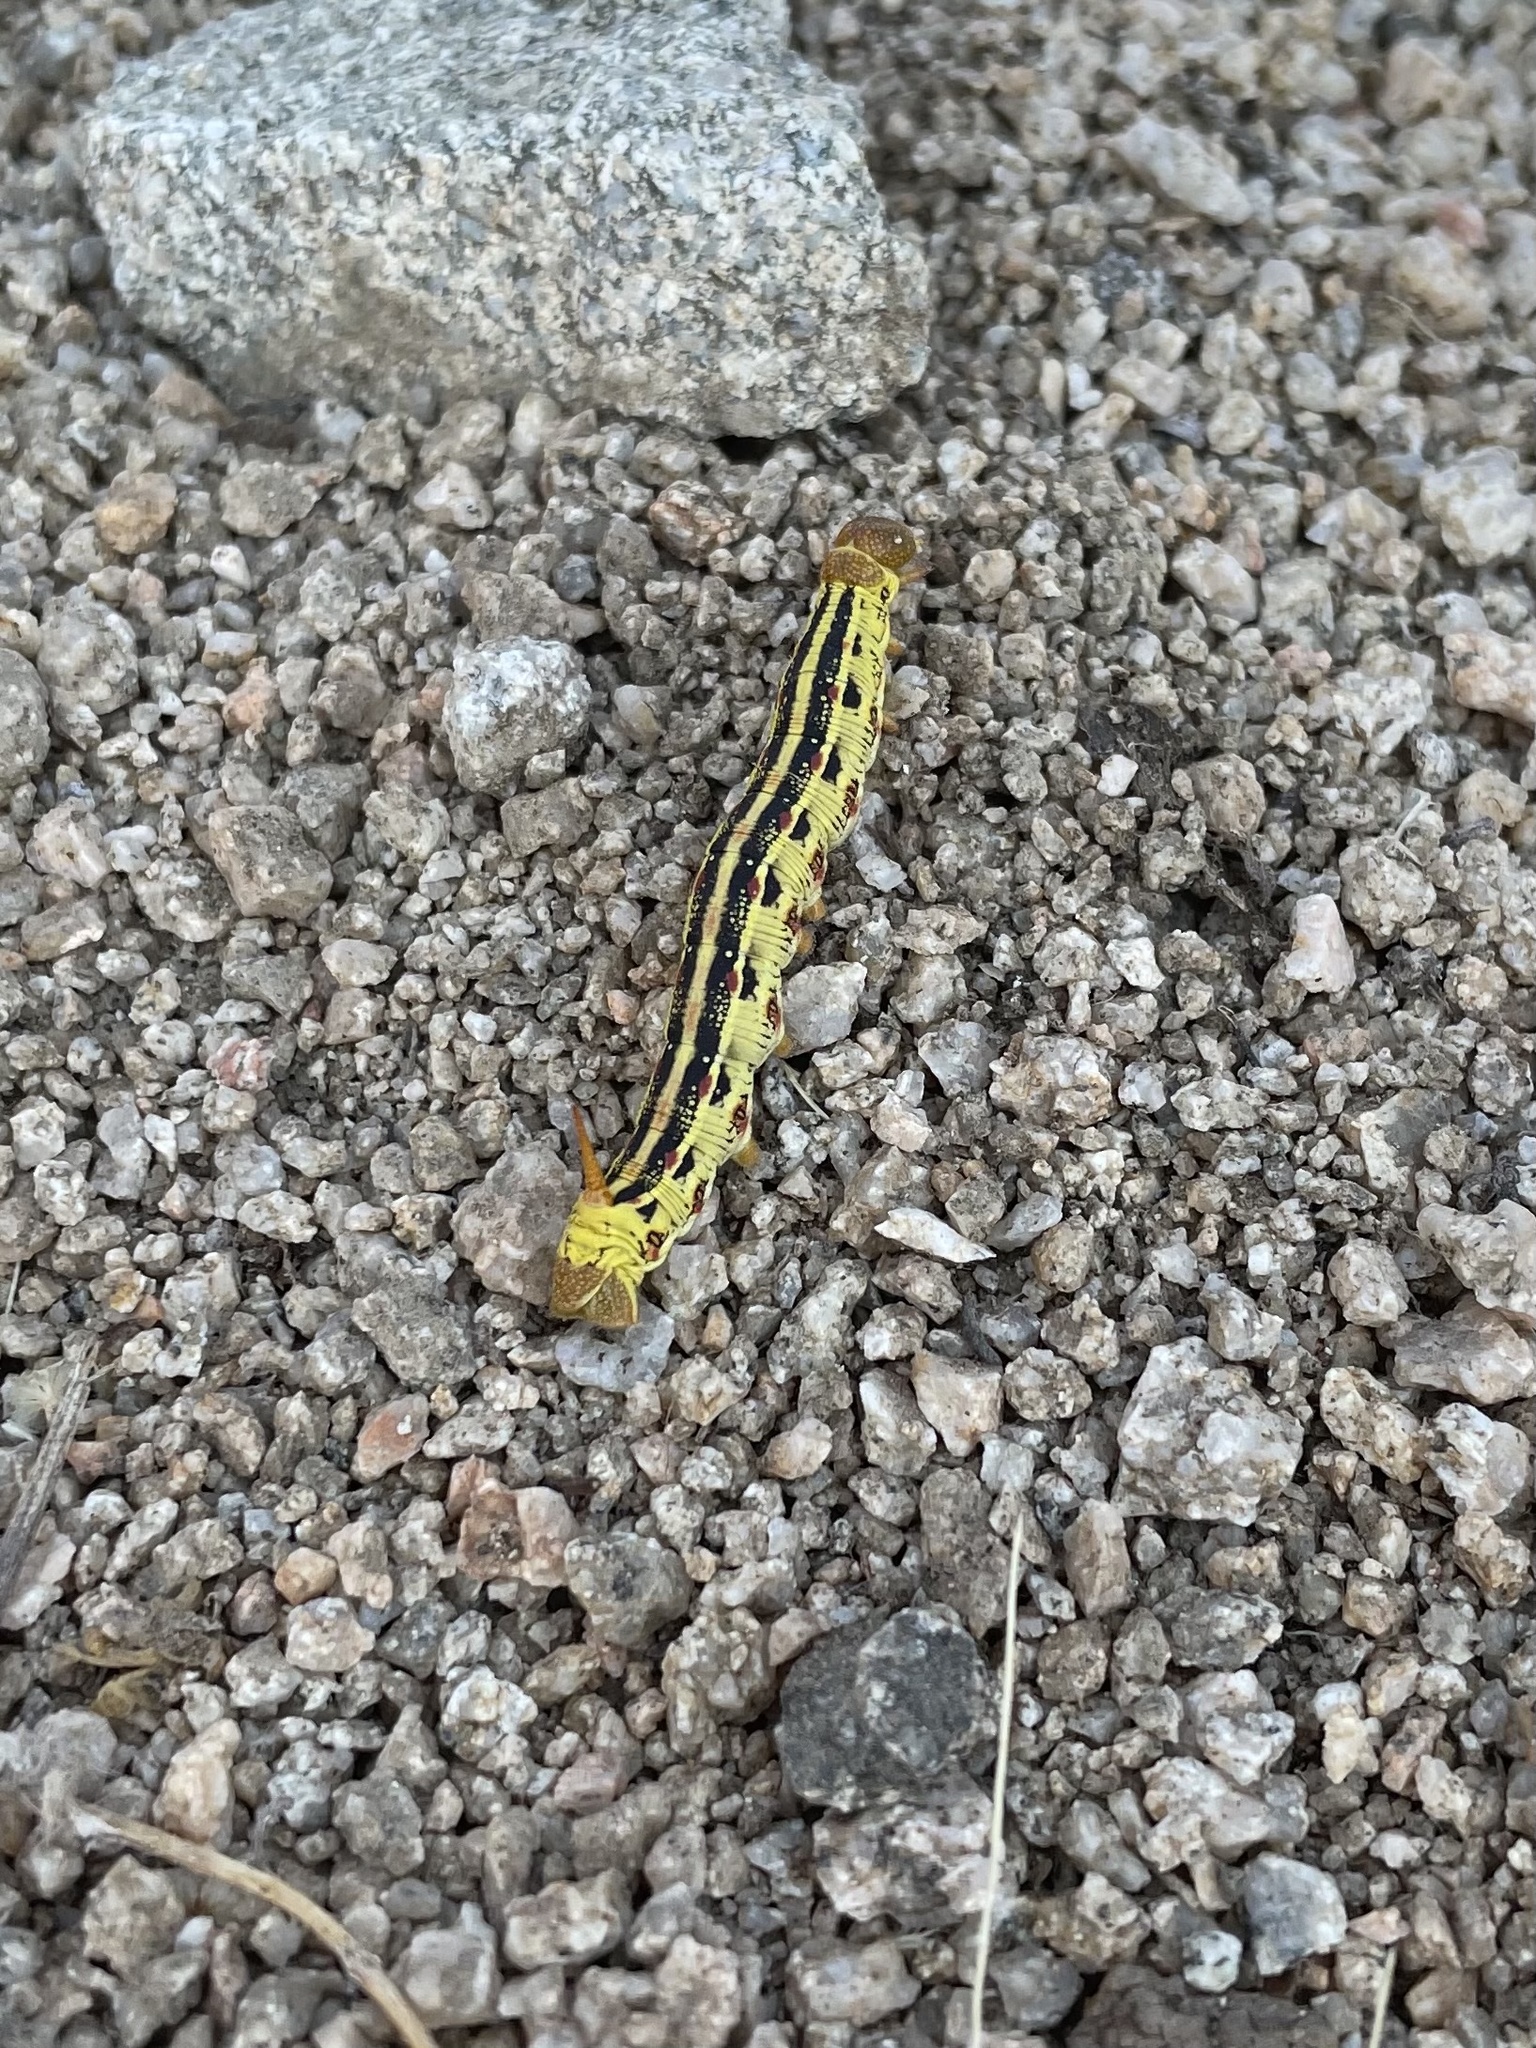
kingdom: Animalia
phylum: Arthropoda
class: Insecta
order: Lepidoptera
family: Sphingidae
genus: Hyles
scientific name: Hyles lineata
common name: White-lined sphinx
